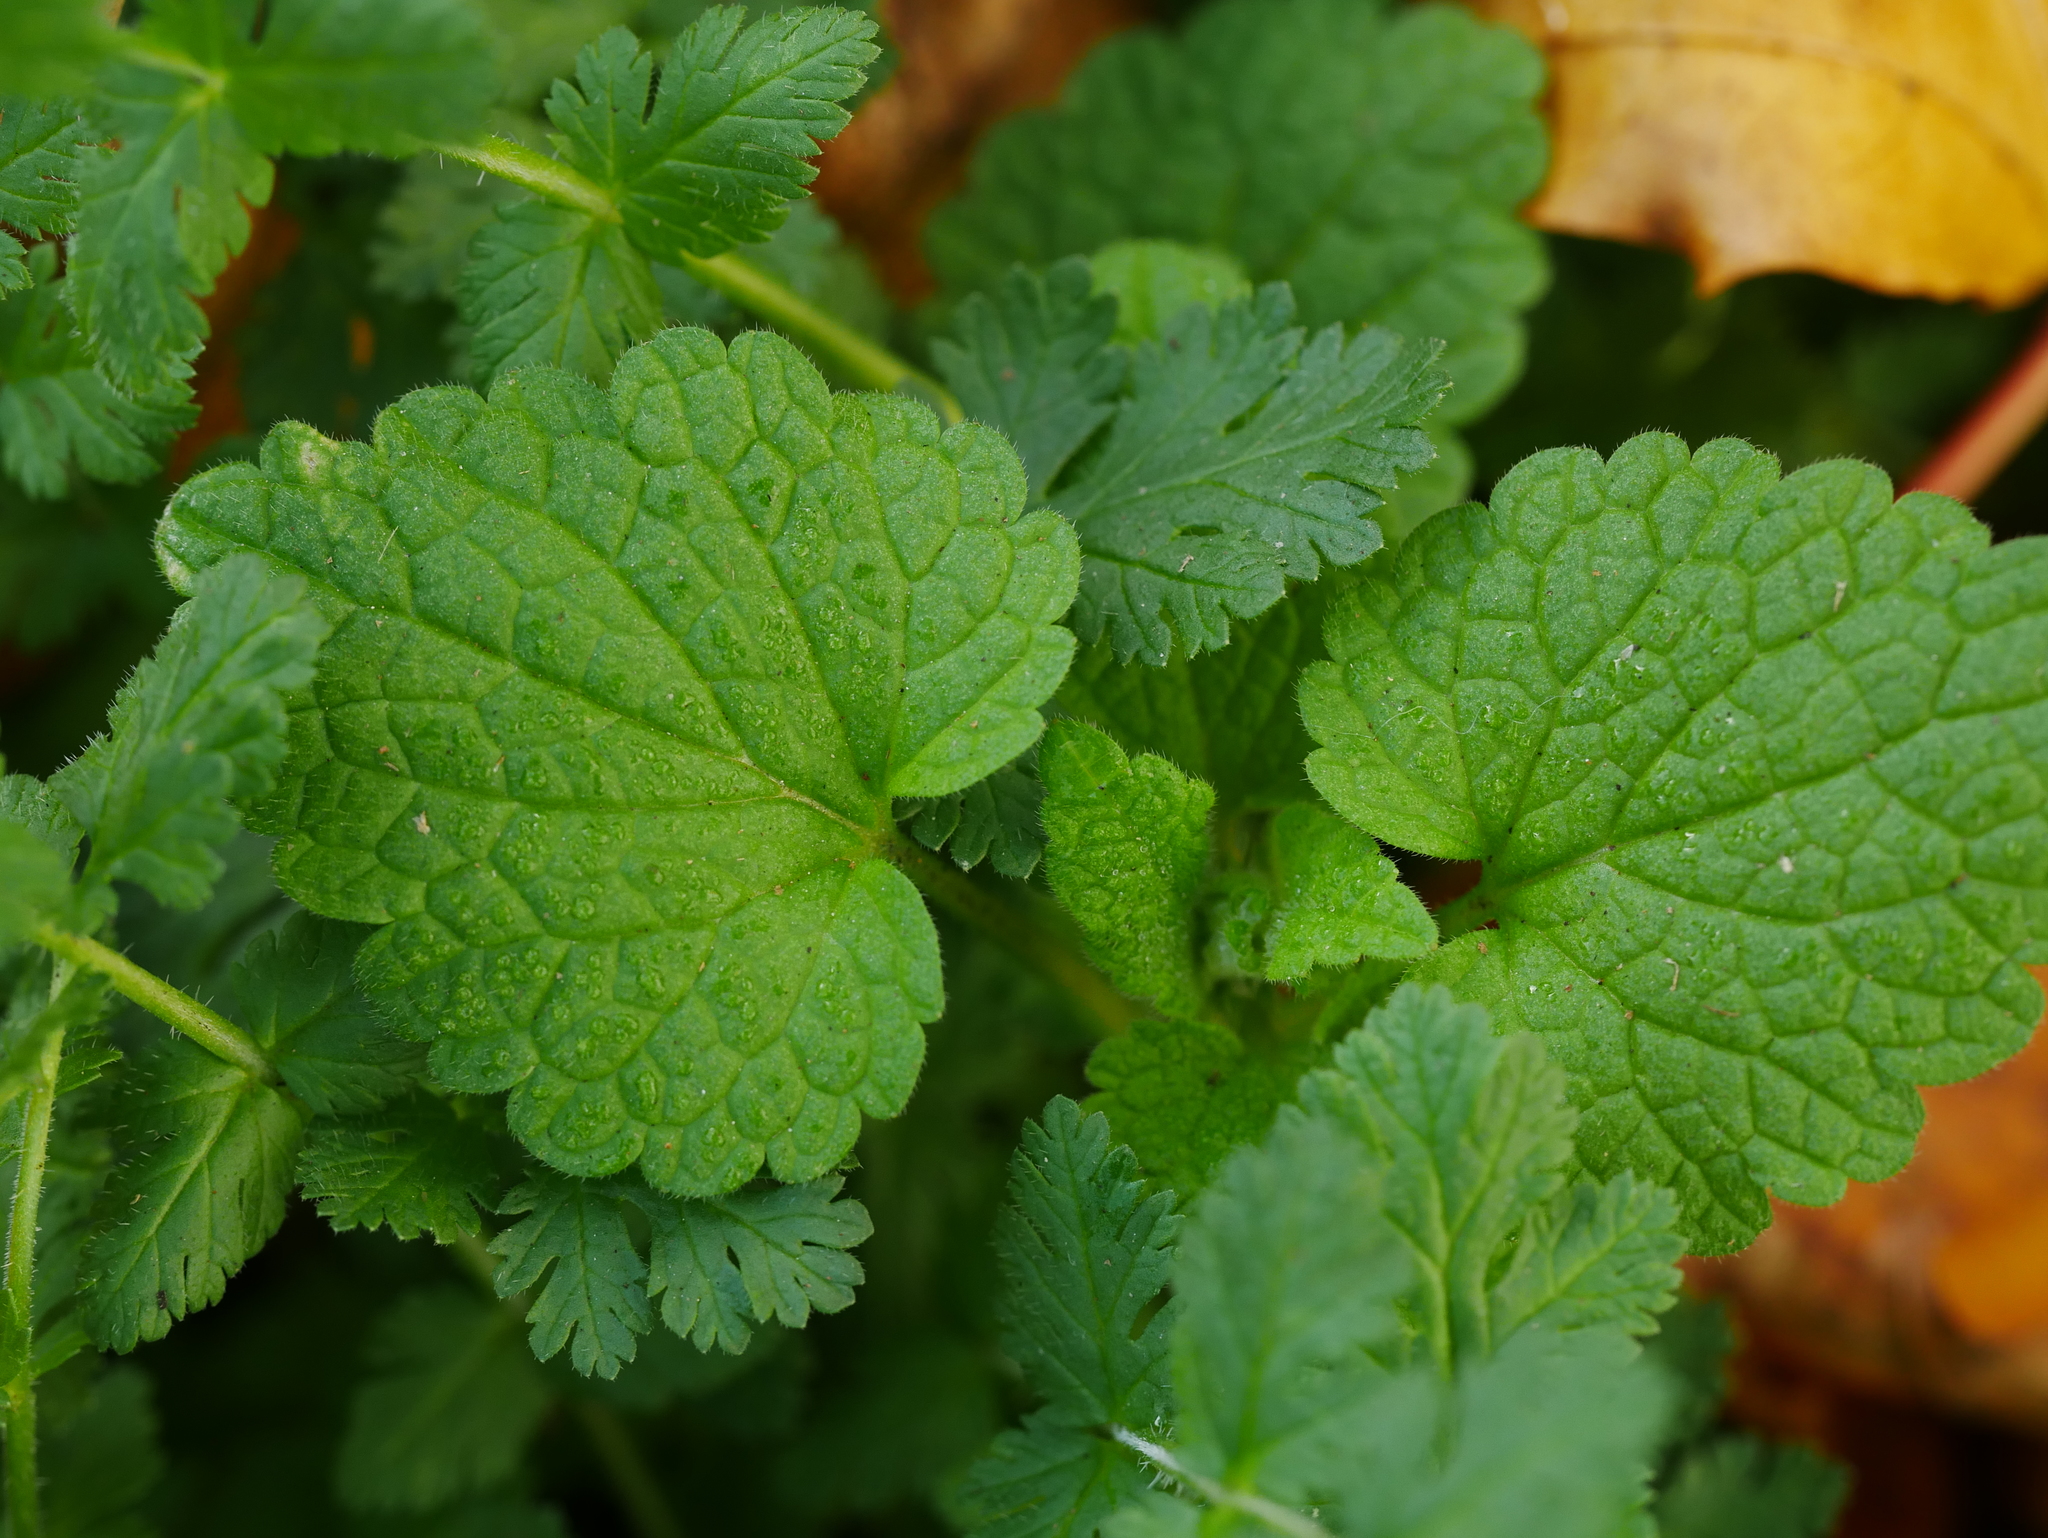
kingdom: Plantae
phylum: Tracheophyta
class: Magnoliopsida
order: Lamiales
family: Lamiaceae
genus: Lamium
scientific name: Lamium purpureum
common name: Red dead-nettle
